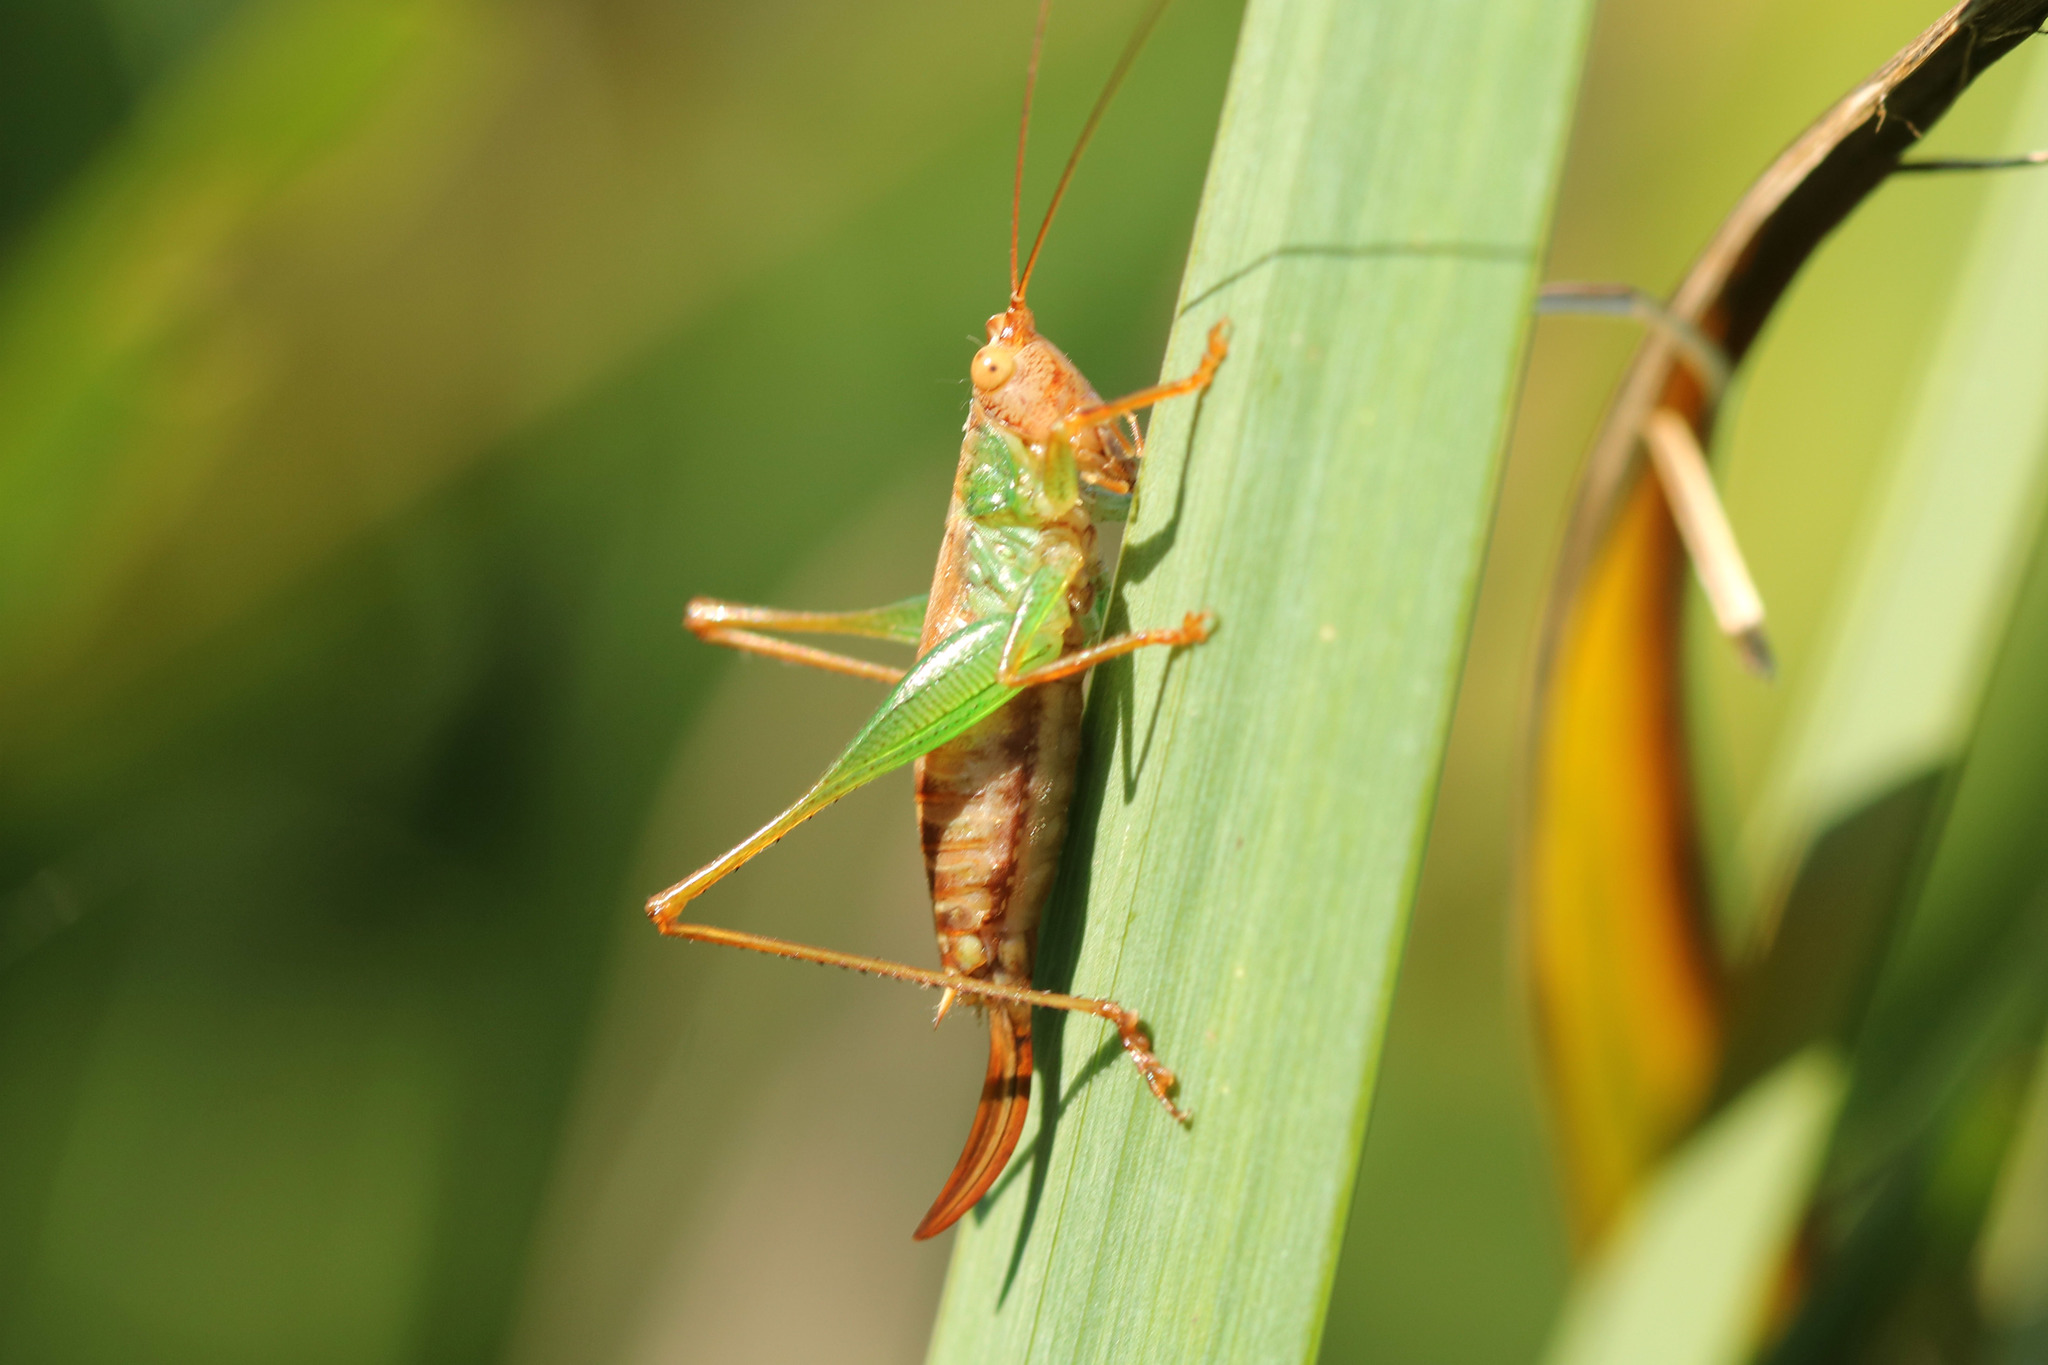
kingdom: Animalia
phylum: Arthropoda
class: Insecta
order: Orthoptera
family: Tettigoniidae
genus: Conocephalus
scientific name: Conocephalus cinnamonifrons
